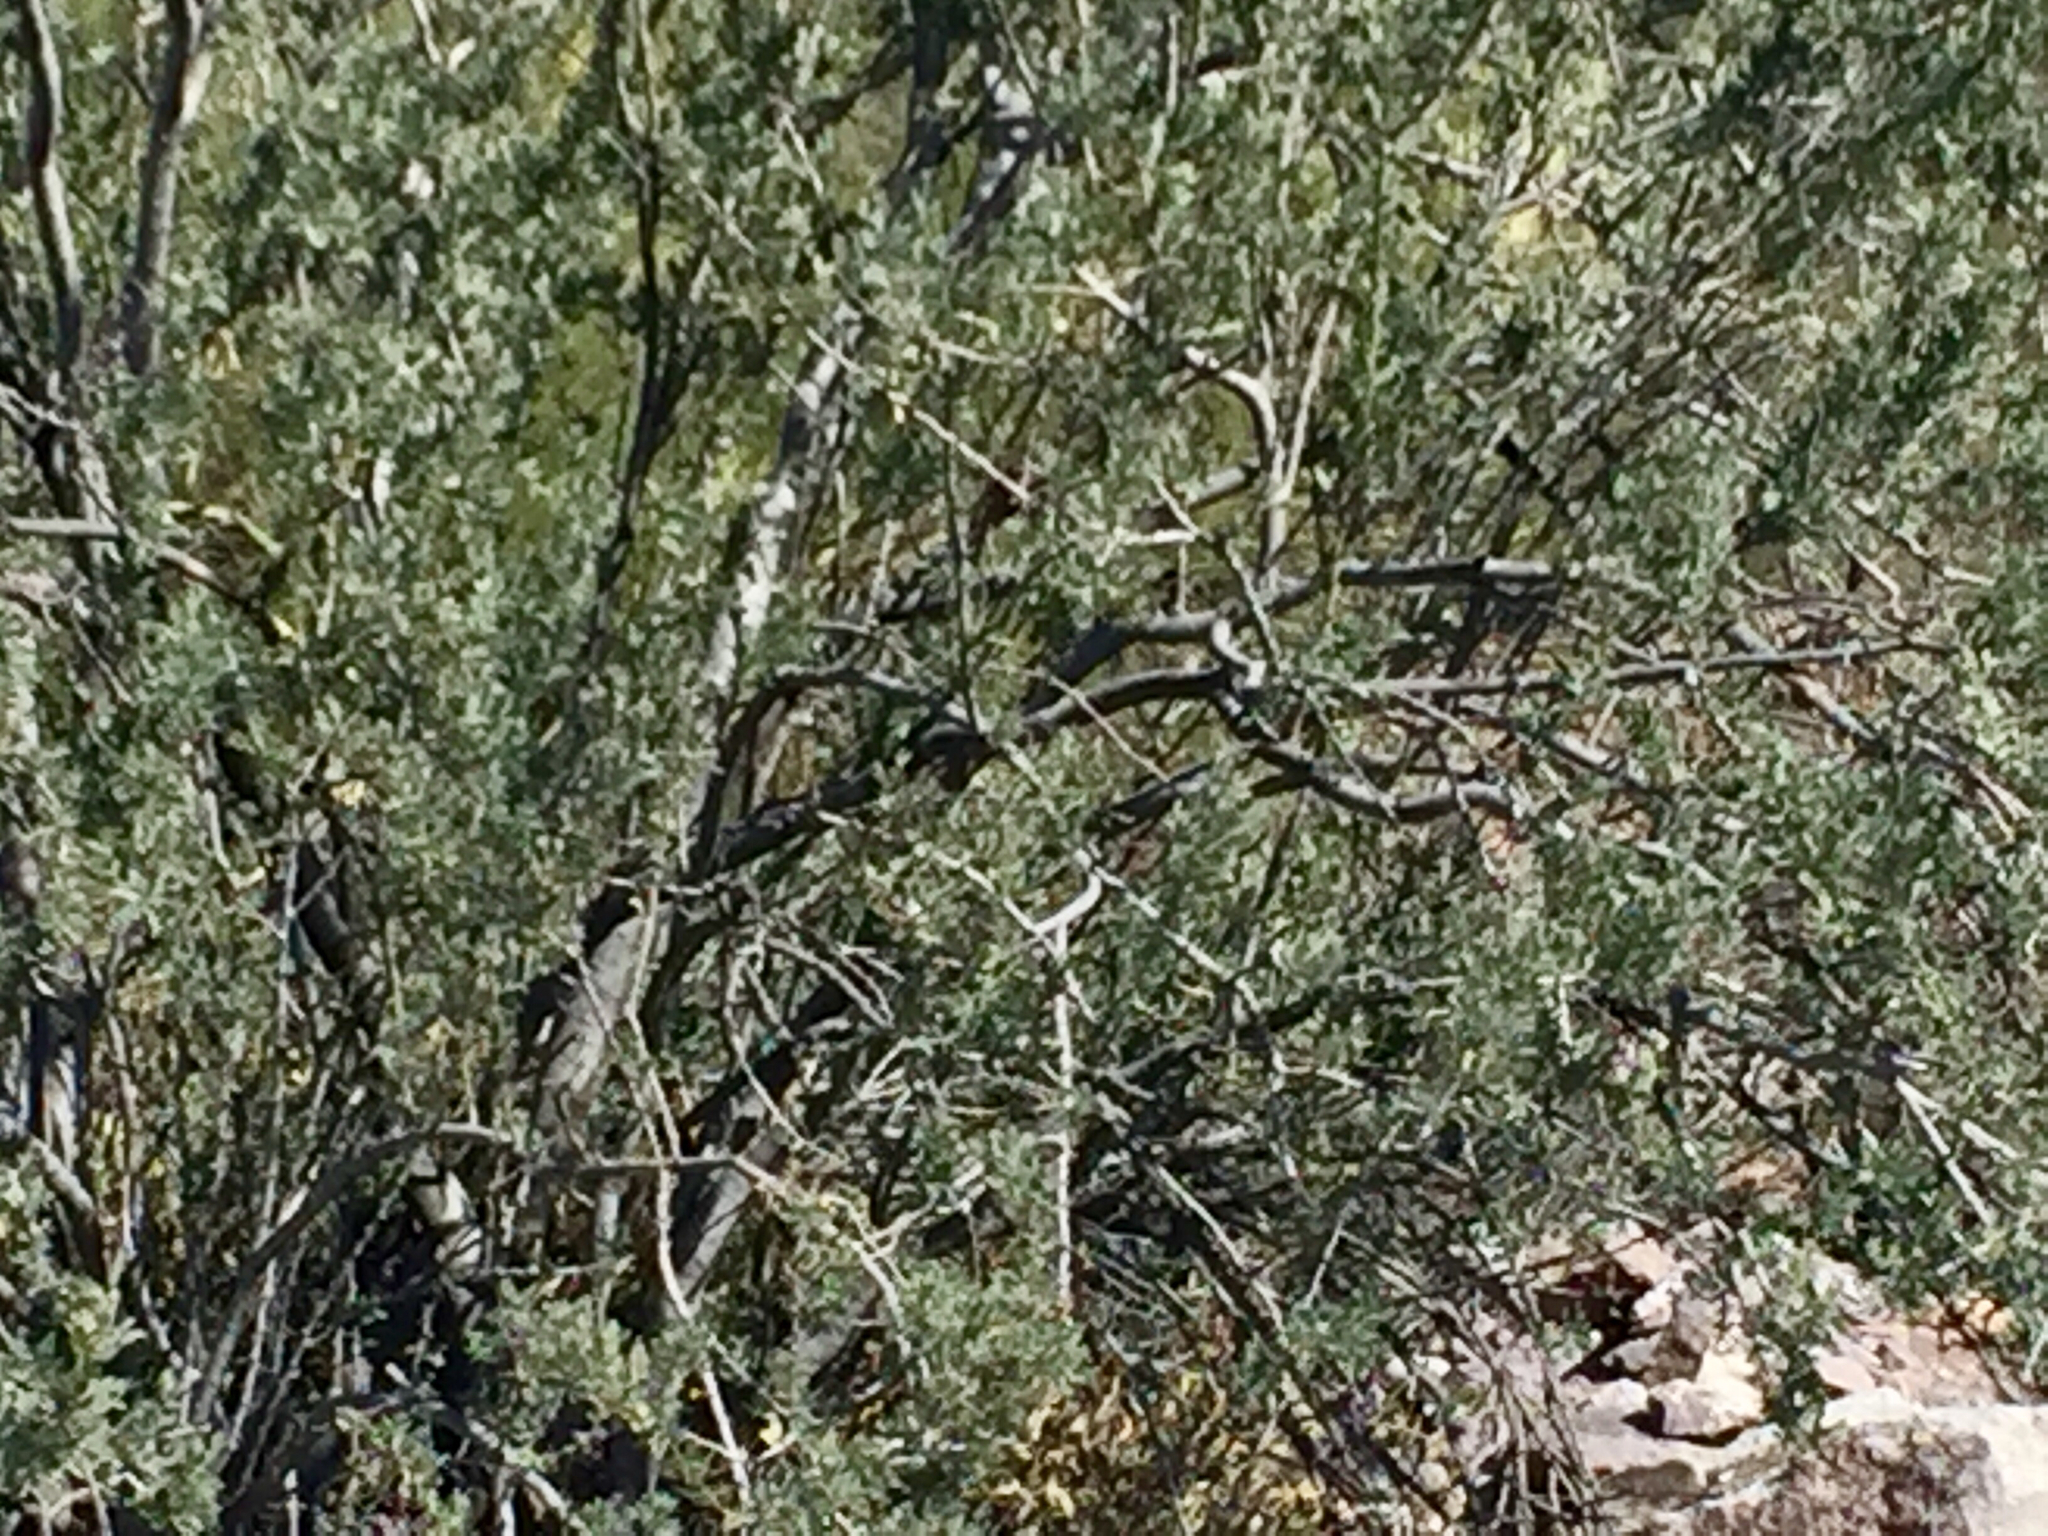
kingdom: Plantae
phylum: Tracheophyta
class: Magnoliopsida
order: Fabales
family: Fabaceae
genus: Olneya
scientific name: Olneya tesota
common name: Desert ironwood
